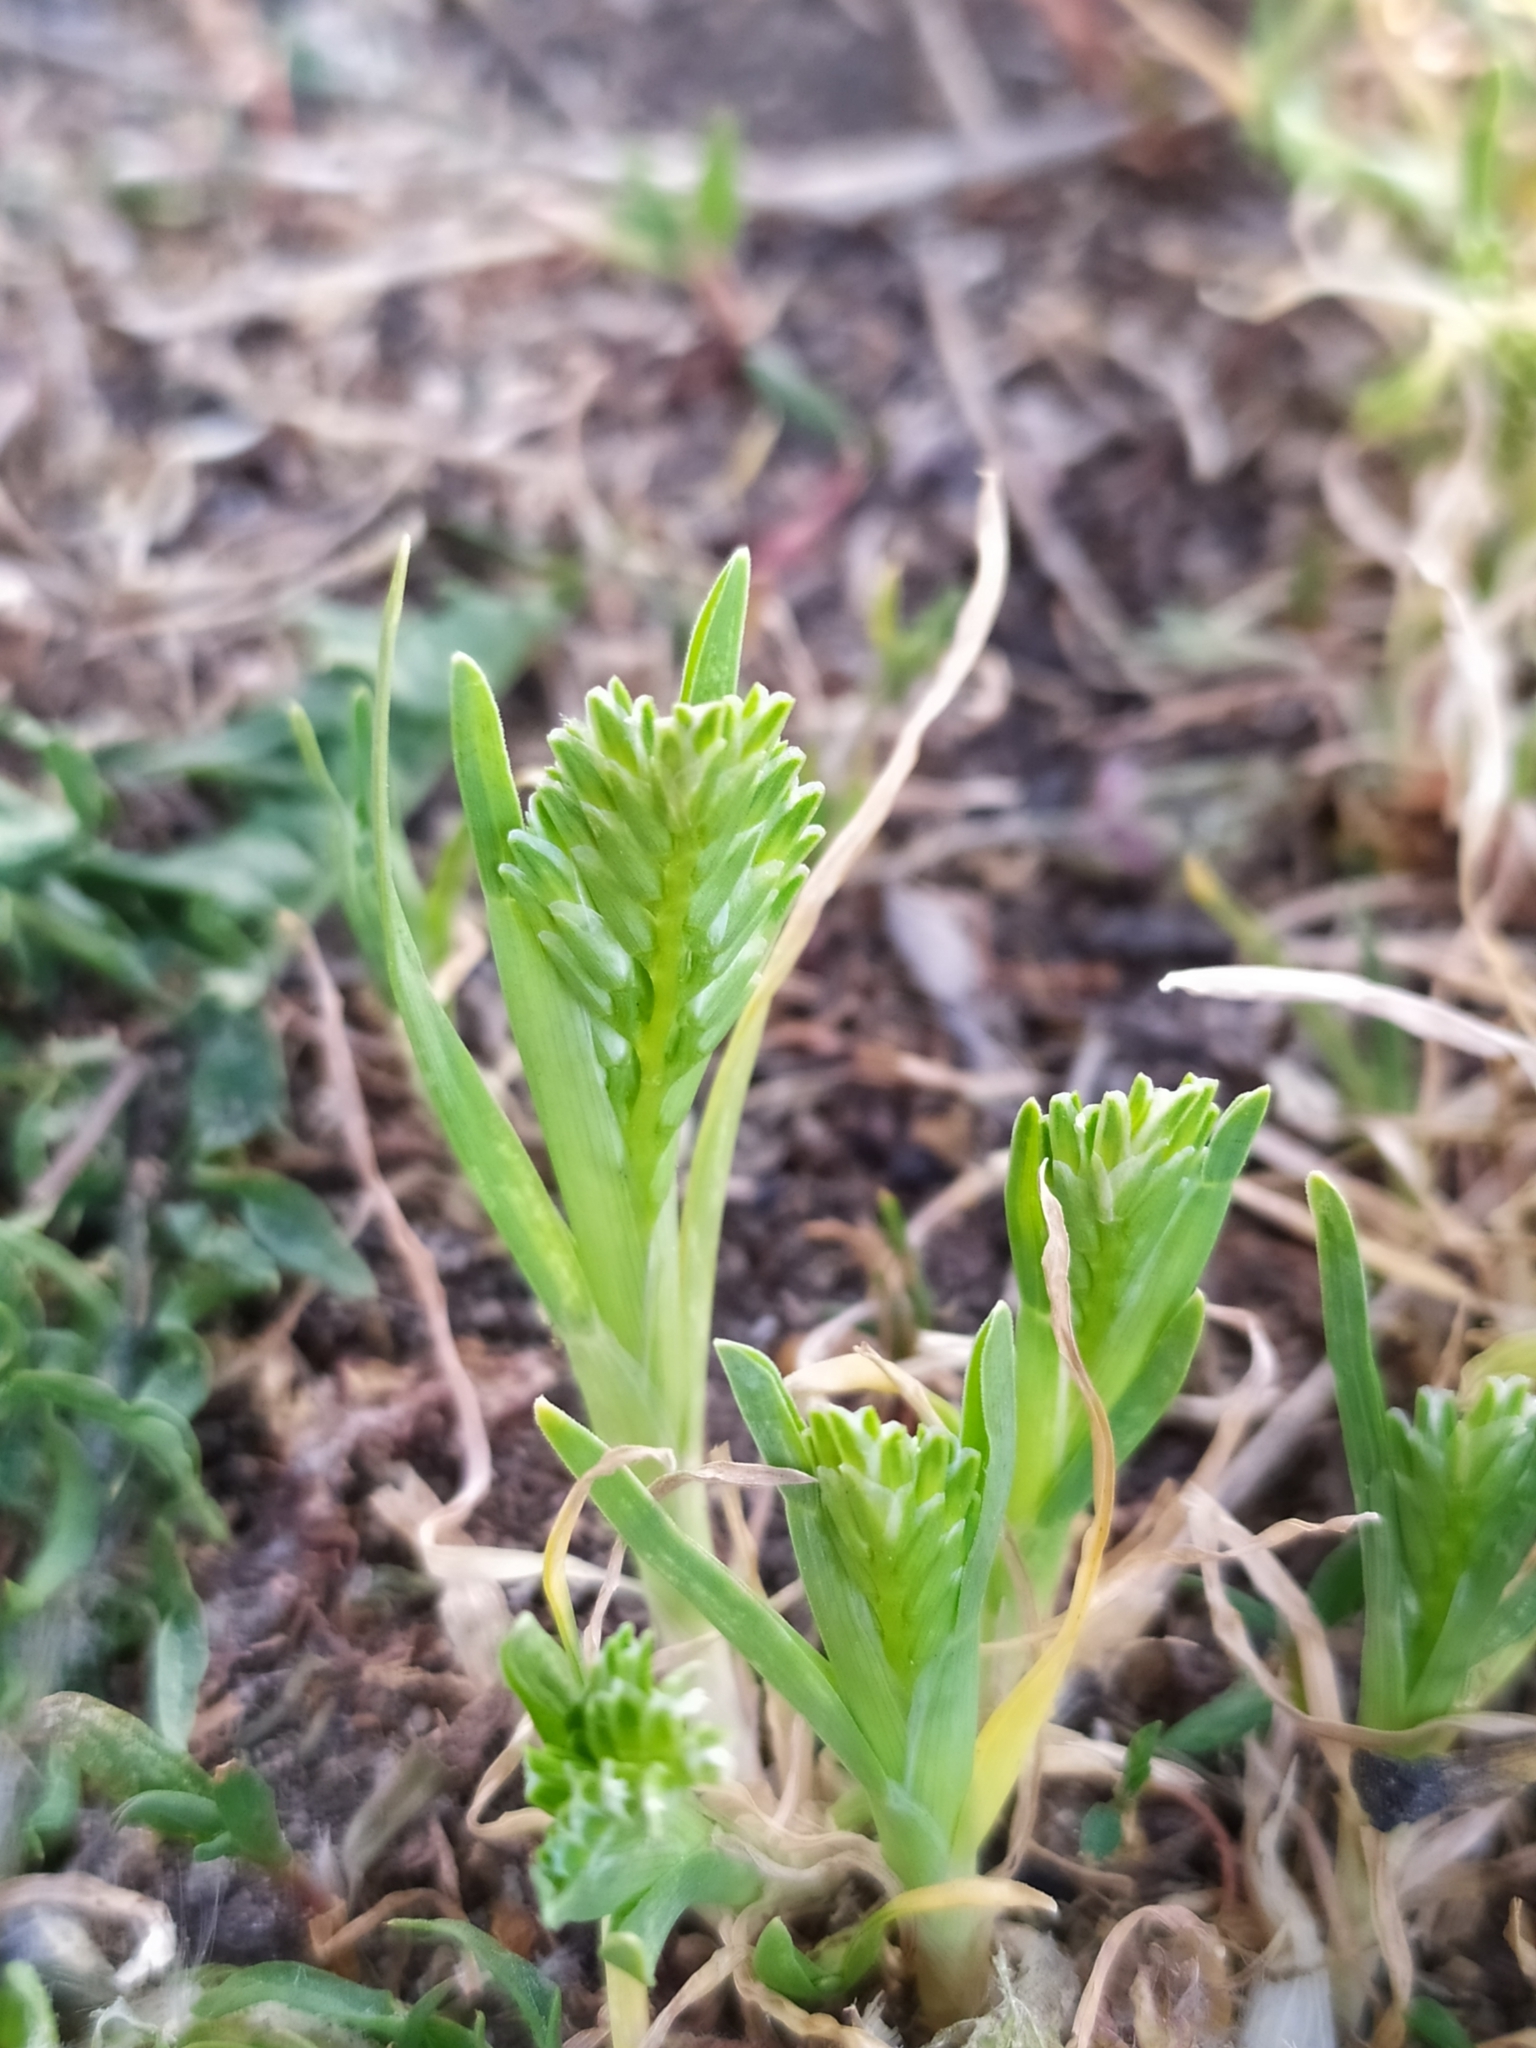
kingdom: Plantae
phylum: Tracheophyta
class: Liliopsida
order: Poales
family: Poaceae
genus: Sclerochloa
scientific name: Sclerochloa dura
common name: Common hardgrass
